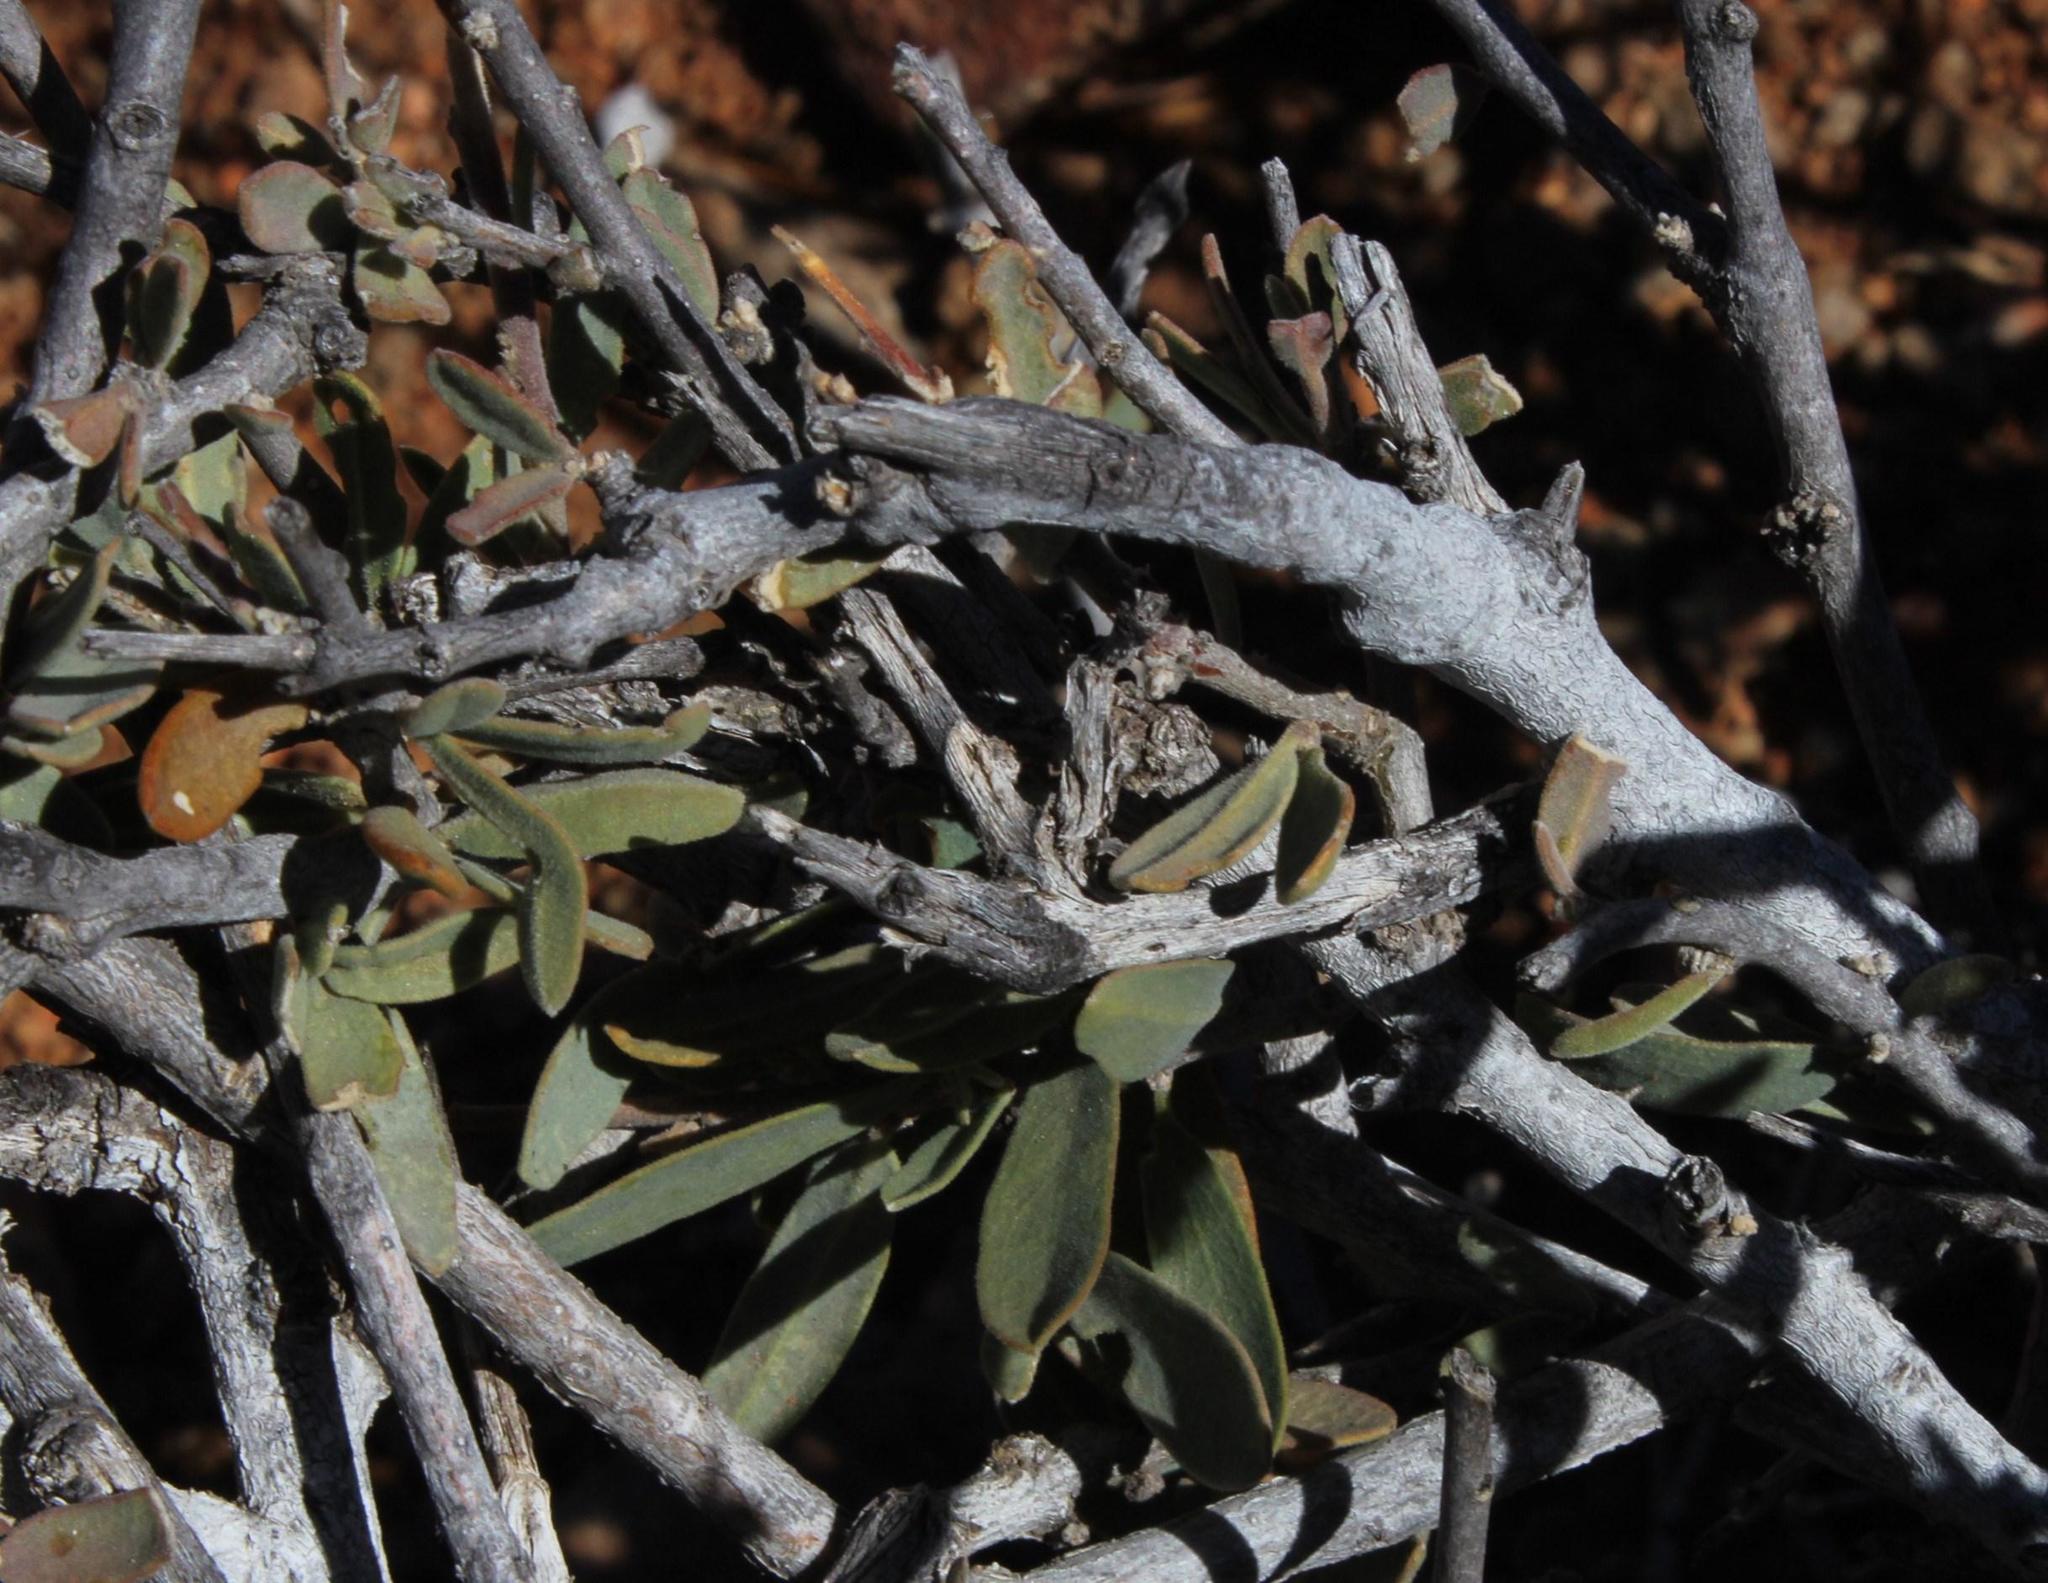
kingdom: Plantae
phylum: Tracheophyta
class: Magnoliopsida
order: Brassicales
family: Capparaceae
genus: Boscia
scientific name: Boscia albitrunca
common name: Caper bush
